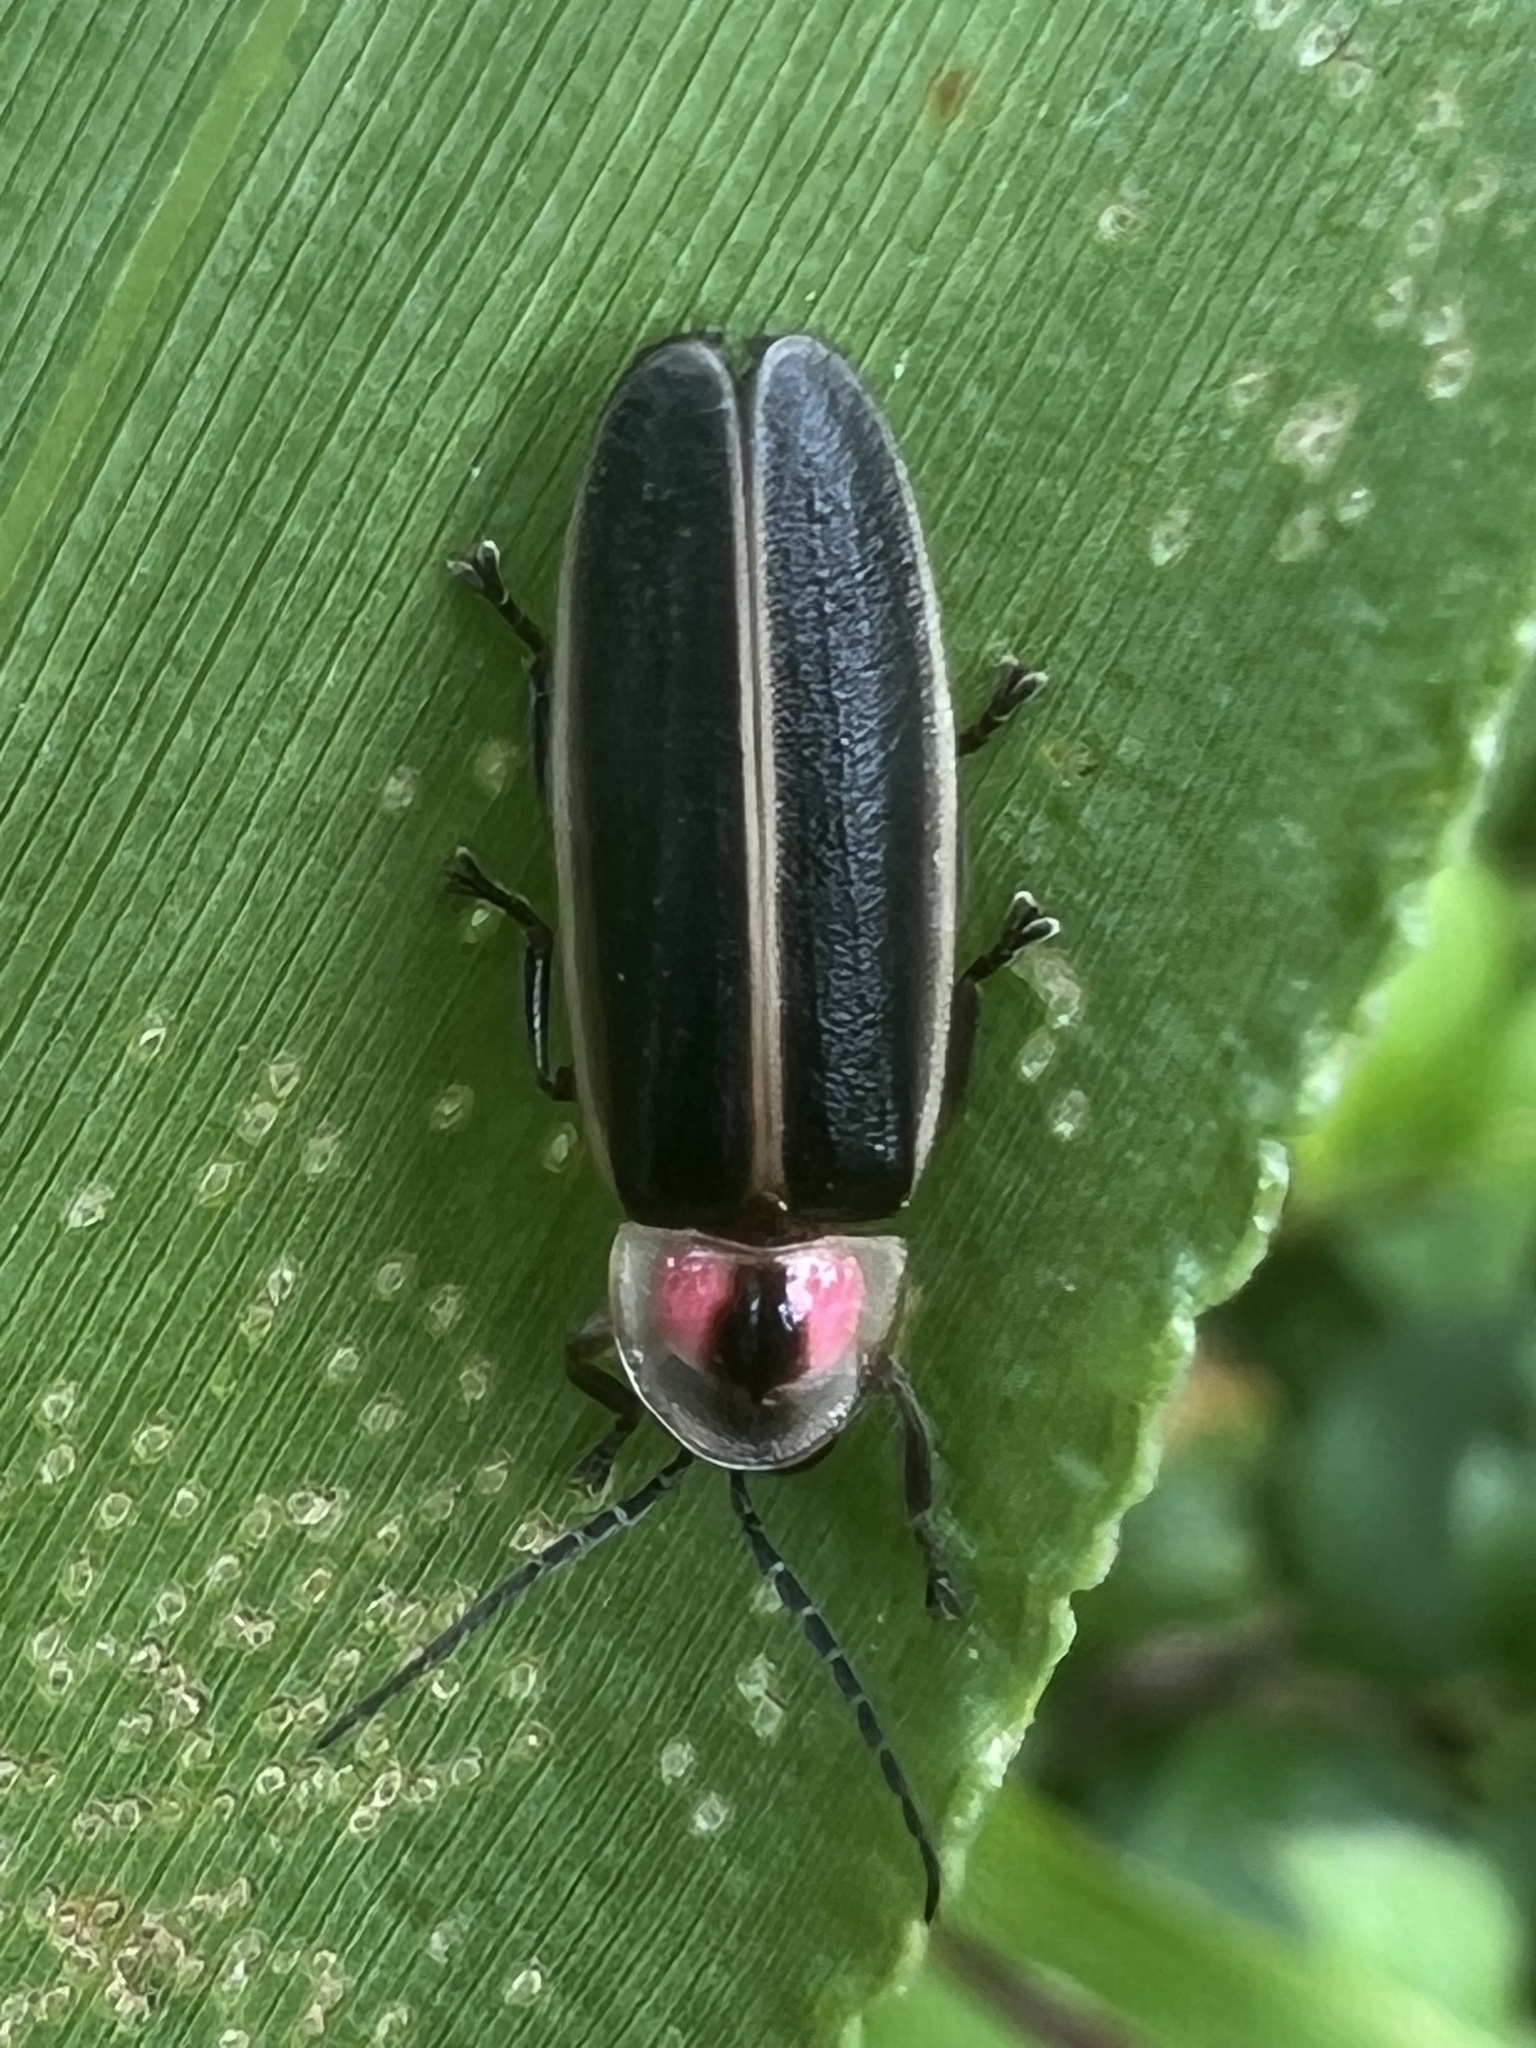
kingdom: Animalia
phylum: Arthropoda
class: Insecta
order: Coleoptera
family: Lampyridae
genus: Photinus
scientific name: Photinus pyralis
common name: Big dipper firefly
